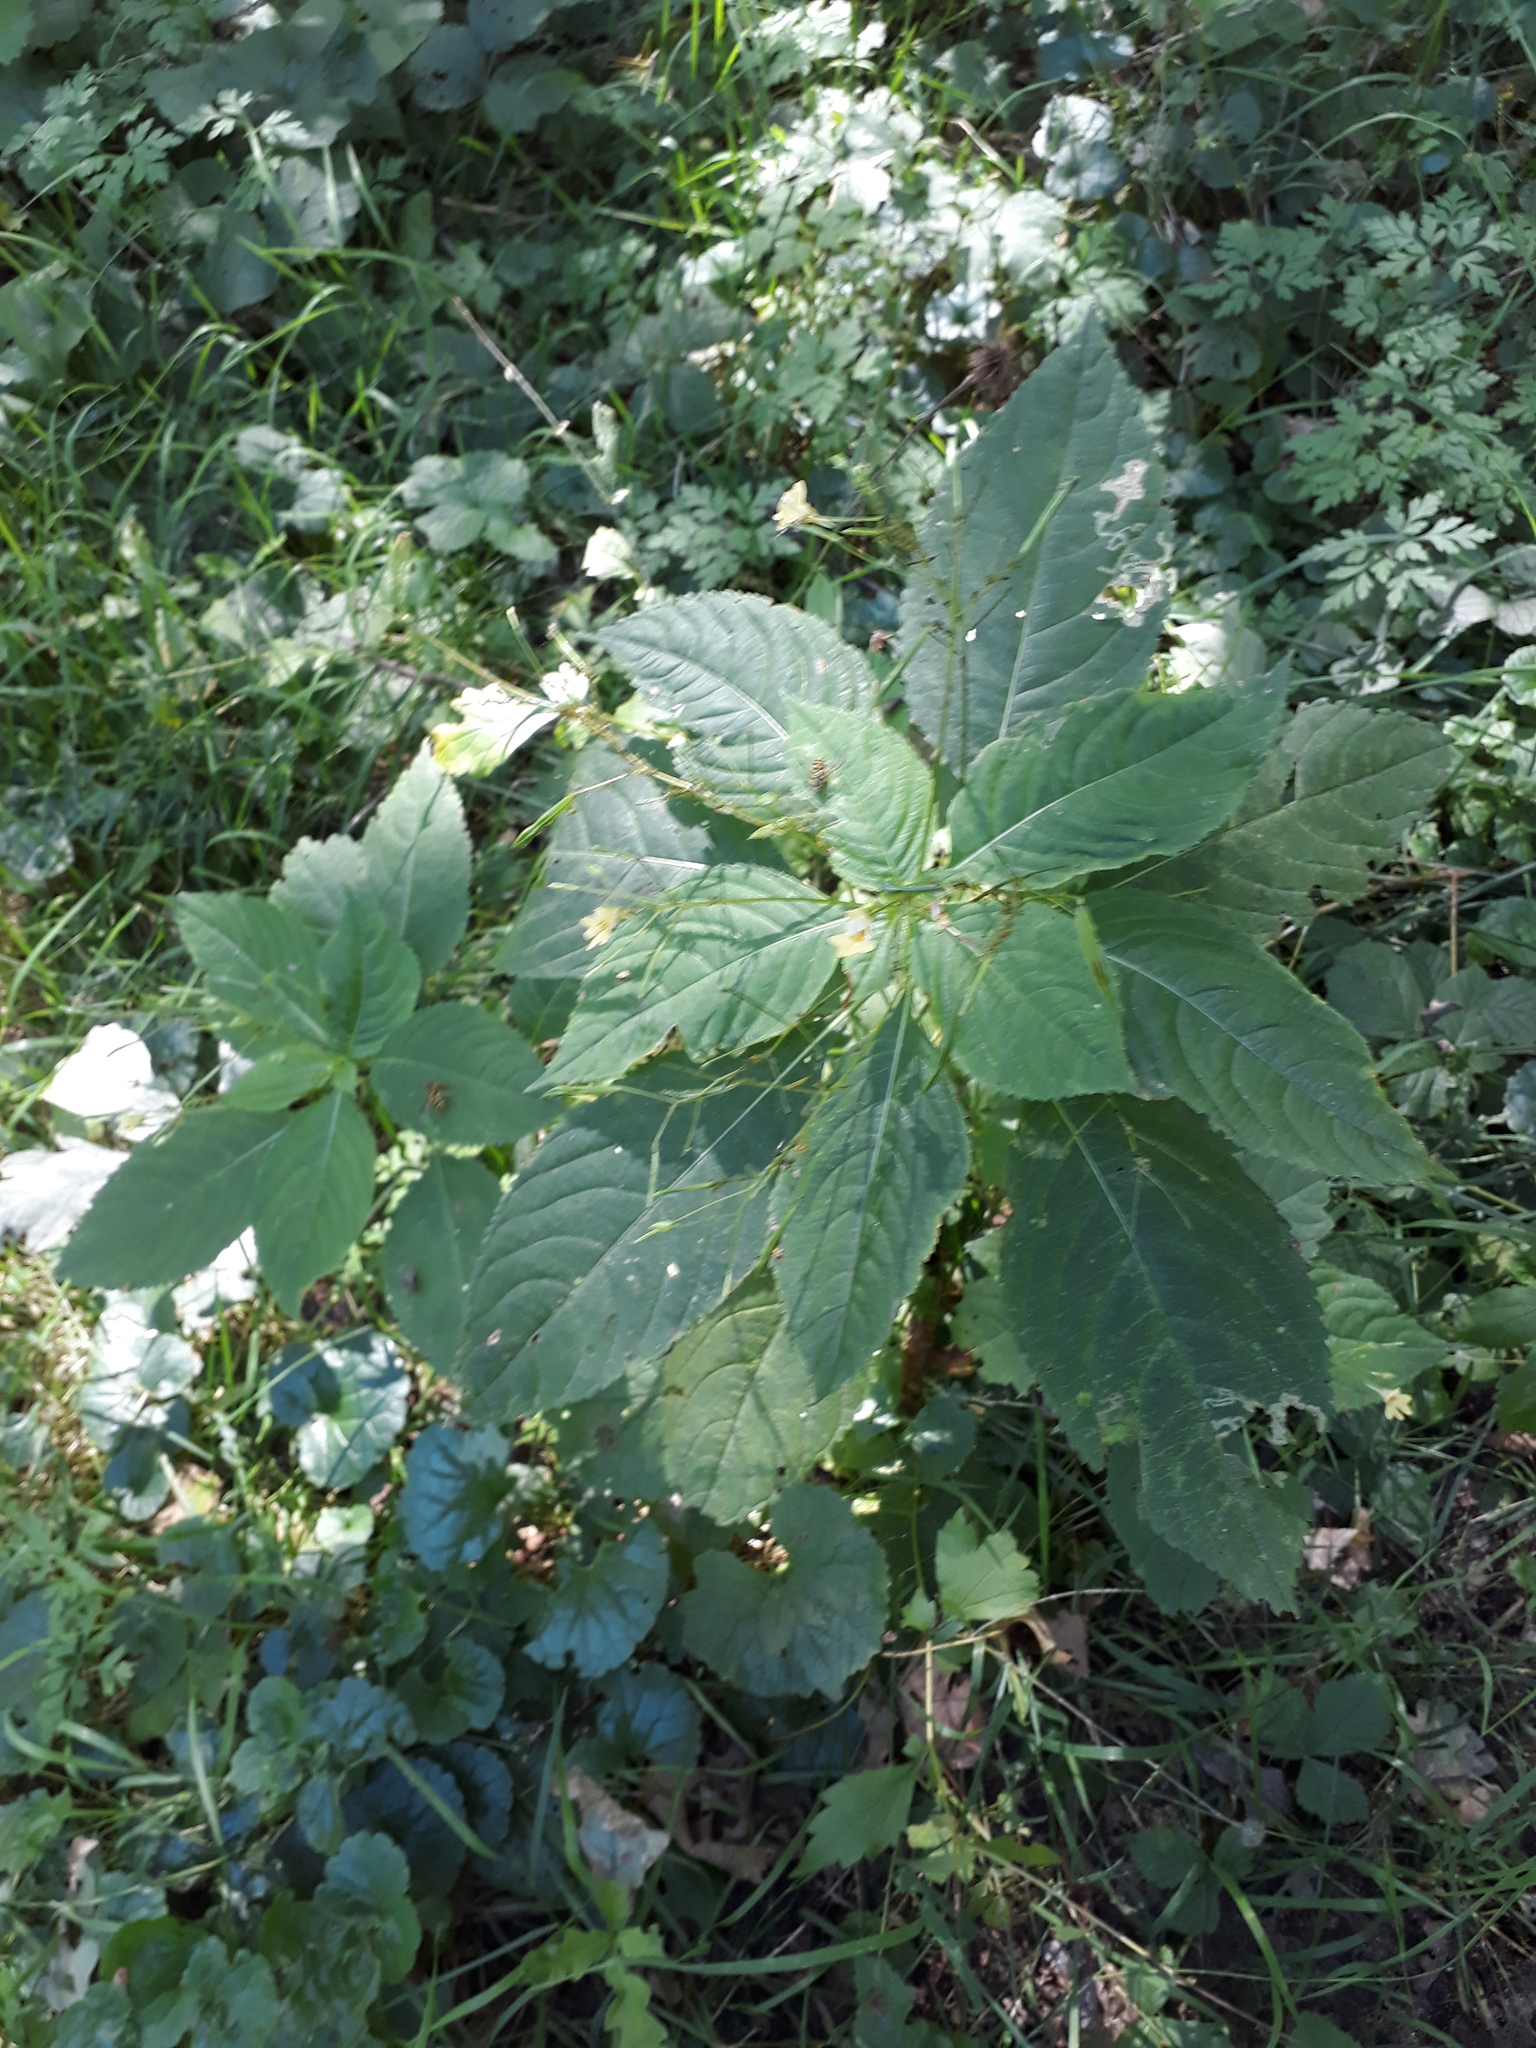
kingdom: Plantae
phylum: Tracheophyta
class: Magnoliopsida
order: Ericales
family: Balsaminaceae
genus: Impatiens
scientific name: Impatiens parviflora
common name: Small balsam
